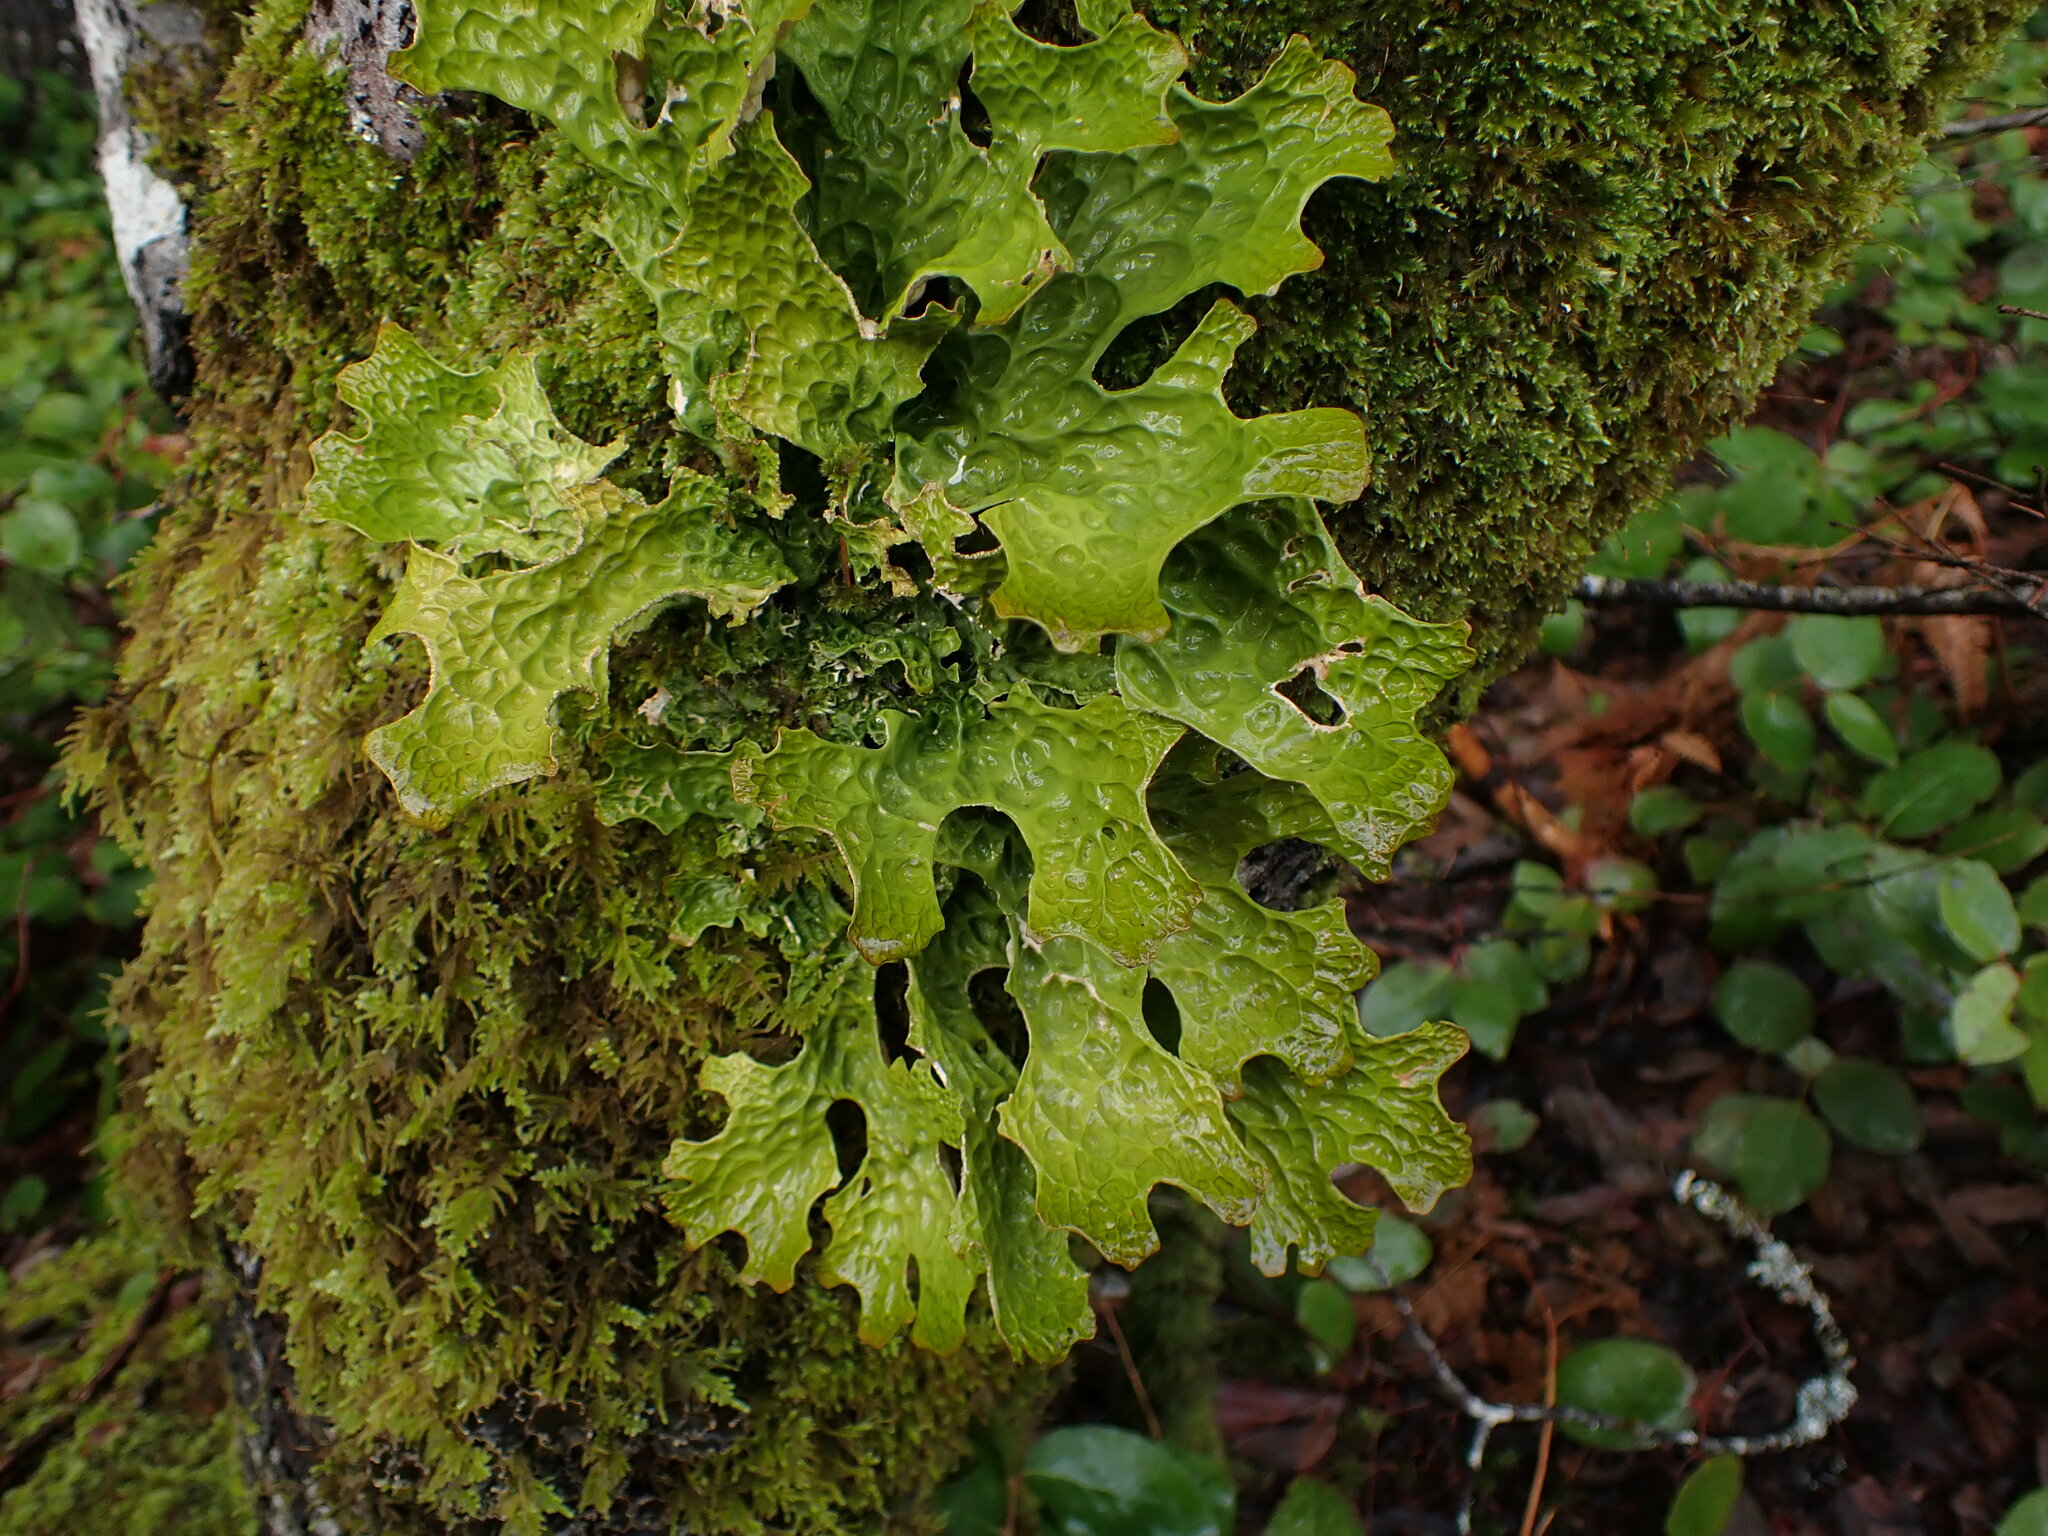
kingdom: Fungi
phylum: Ascomycota
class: Lecanoromycetes
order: Peltigerales
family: Lobariaceae
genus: Lobaria
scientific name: Lobaria pulmonaria
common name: Lungwort
